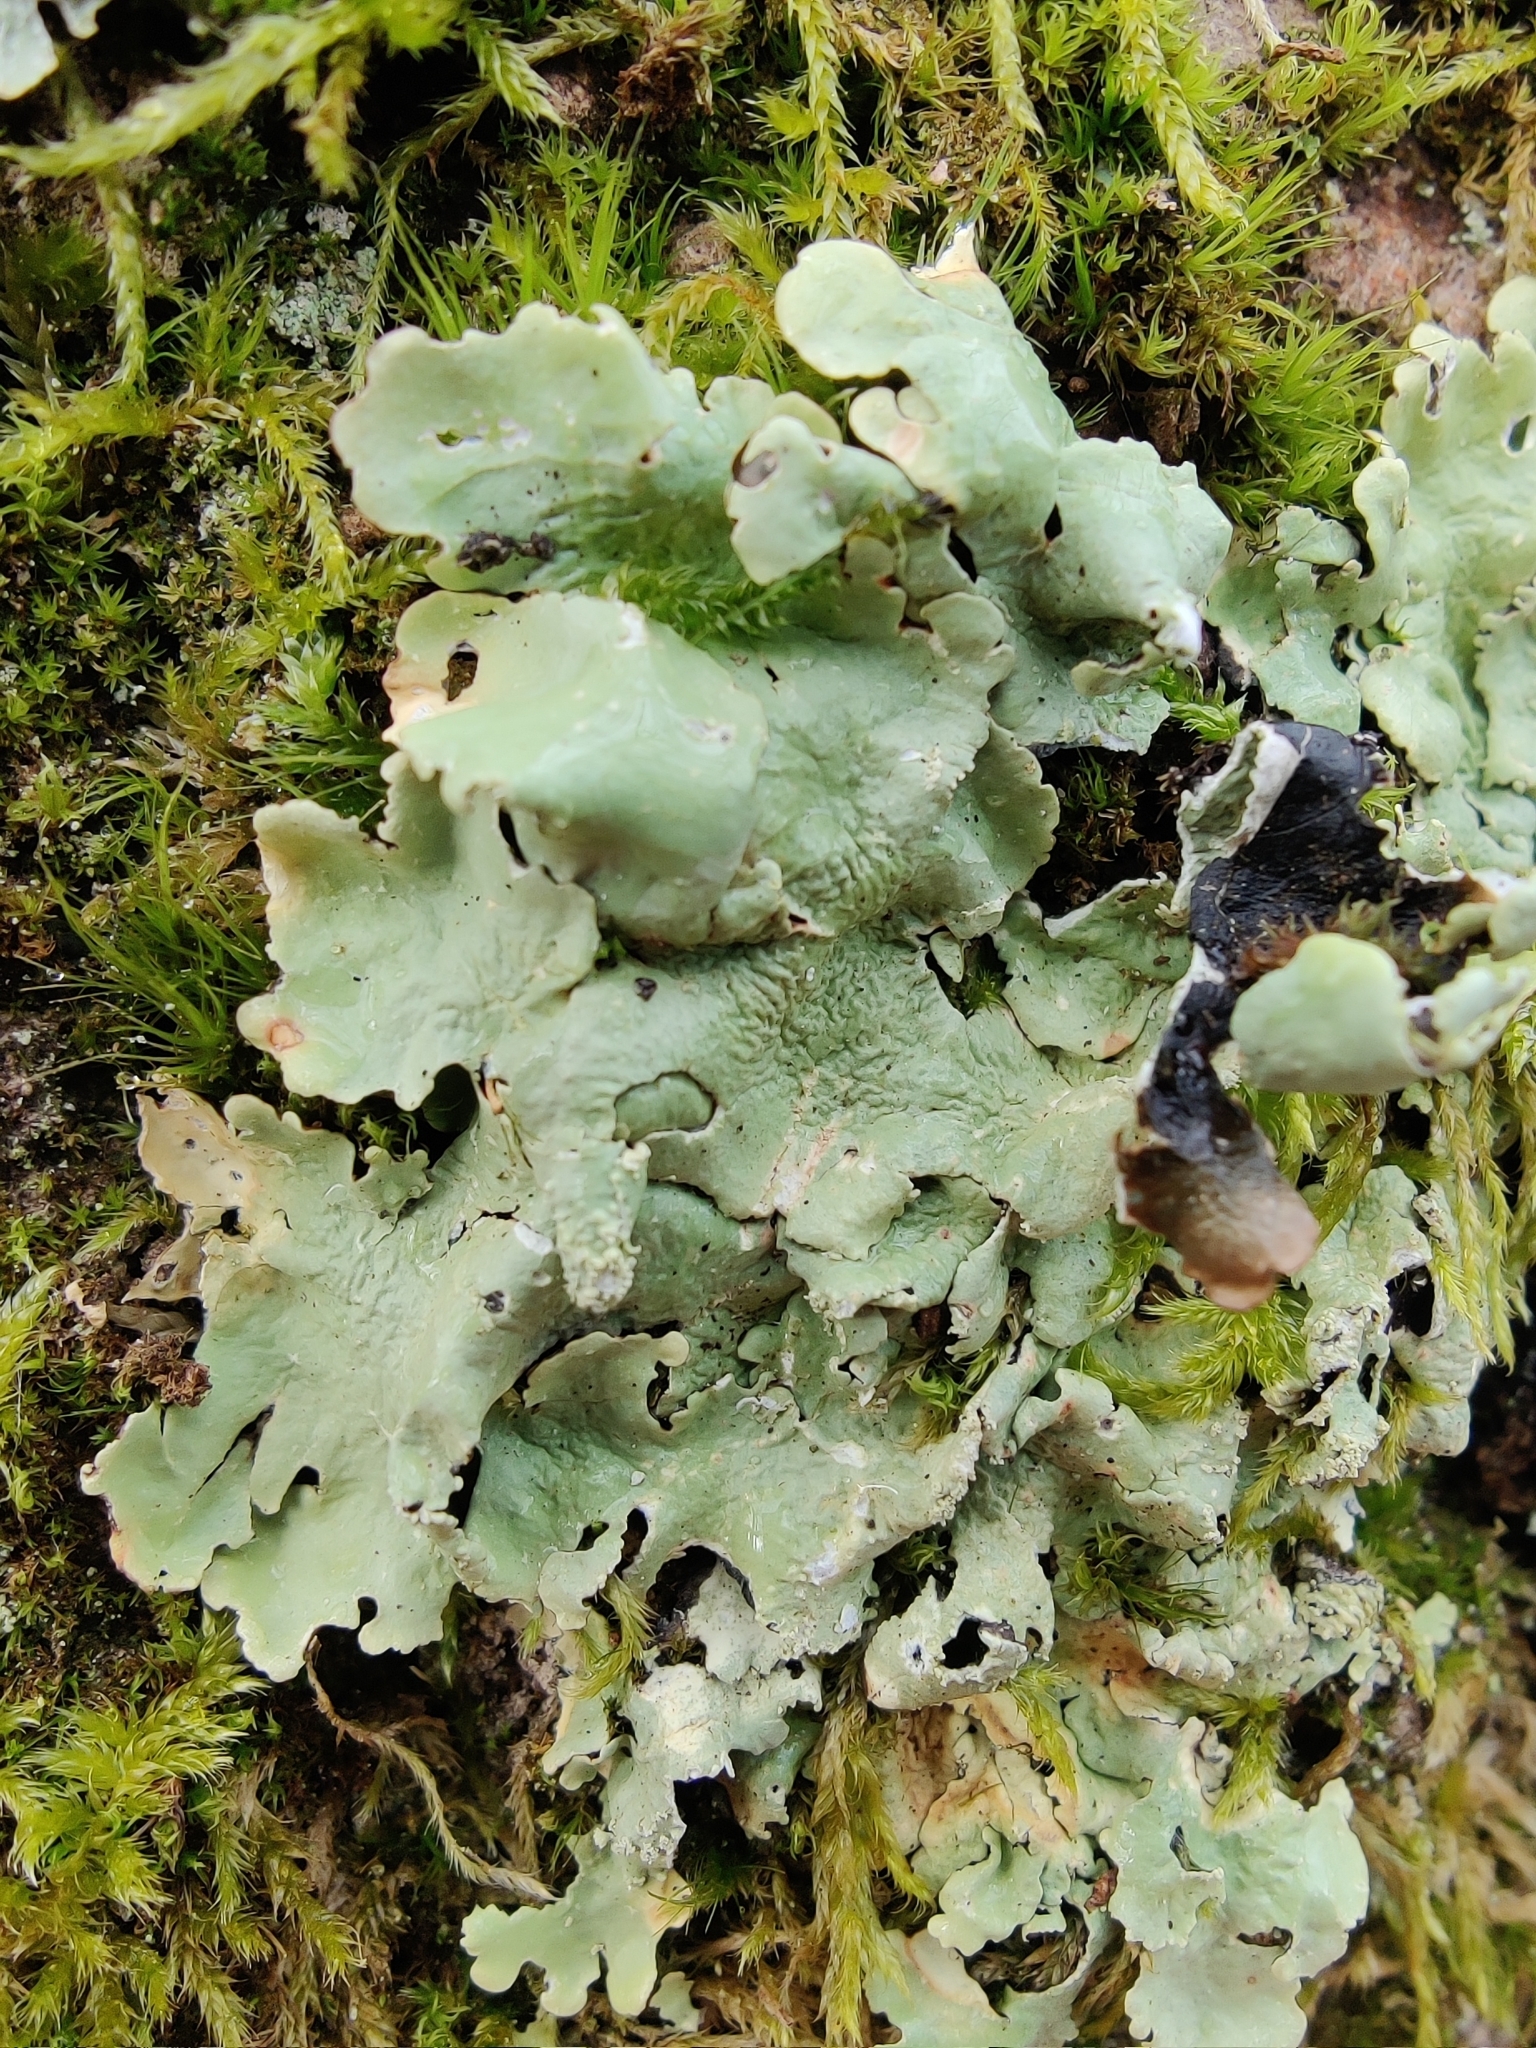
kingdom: Fungi
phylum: Ascomycota
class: Lecanoromycetes
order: Lecanorales
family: Parmeliaceae
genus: Flavoparmelia
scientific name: Flavoparmelia caperata
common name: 40-mile per hour lichen
